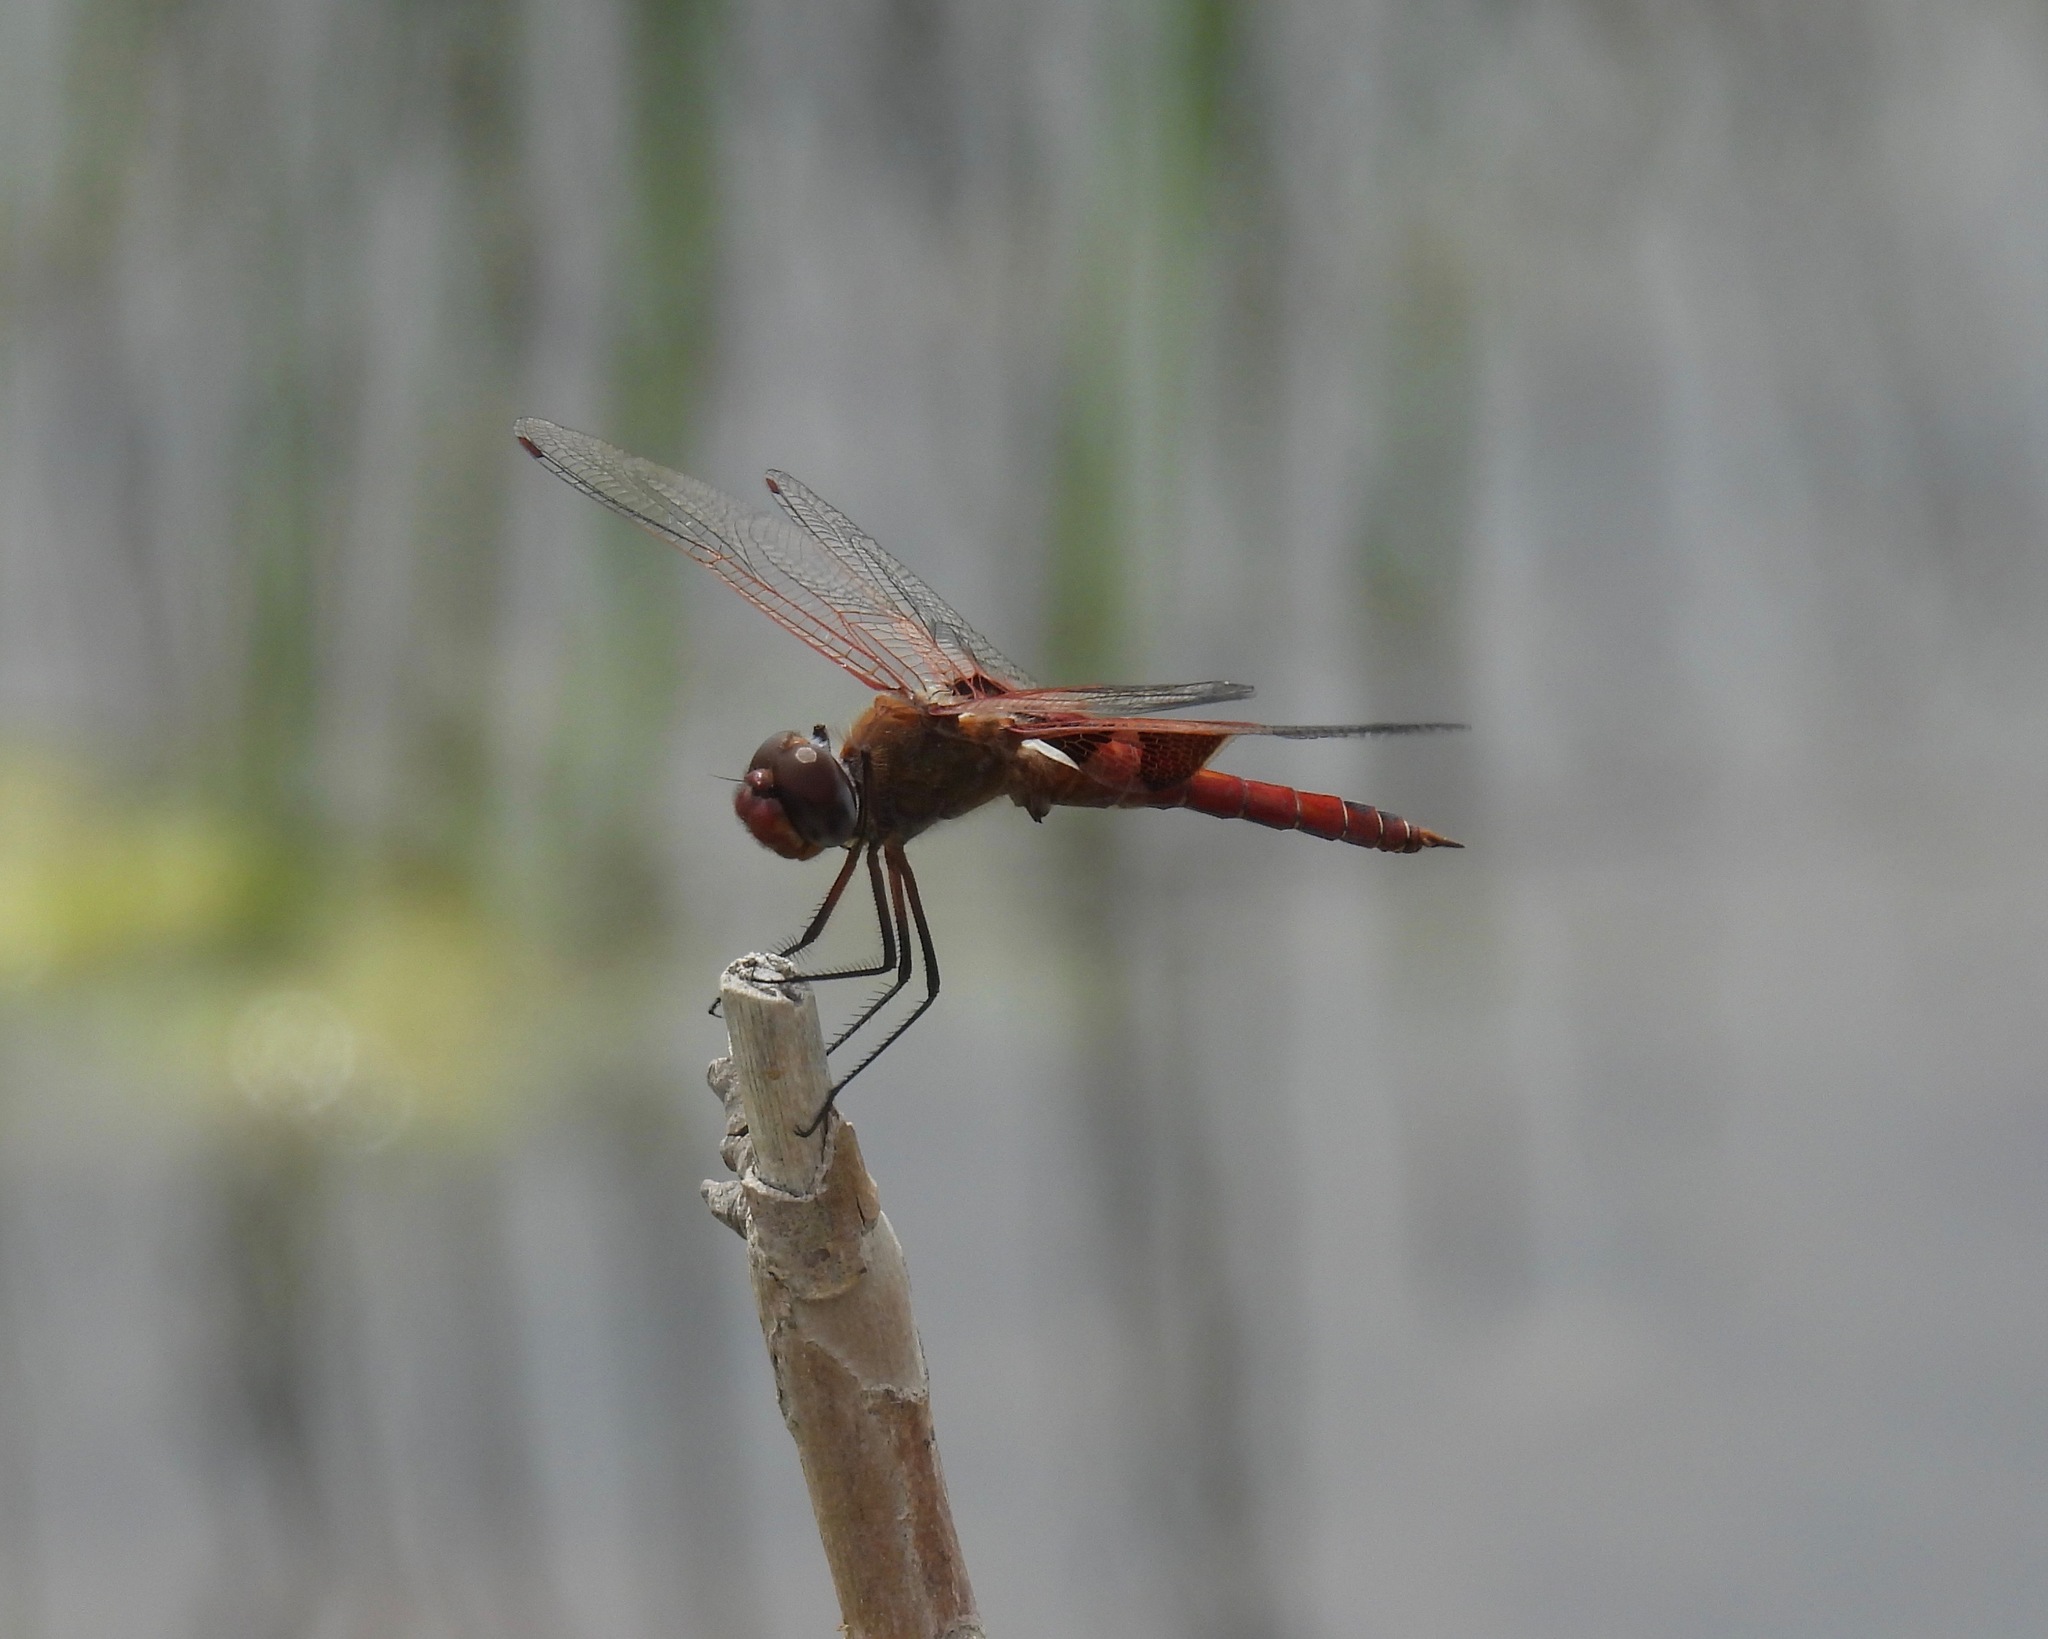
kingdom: Animalia
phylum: Arthropoda
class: Insecta
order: Odonata
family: Libellulidae
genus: Tramea
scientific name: Tramea onusta
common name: Red saddlebags
